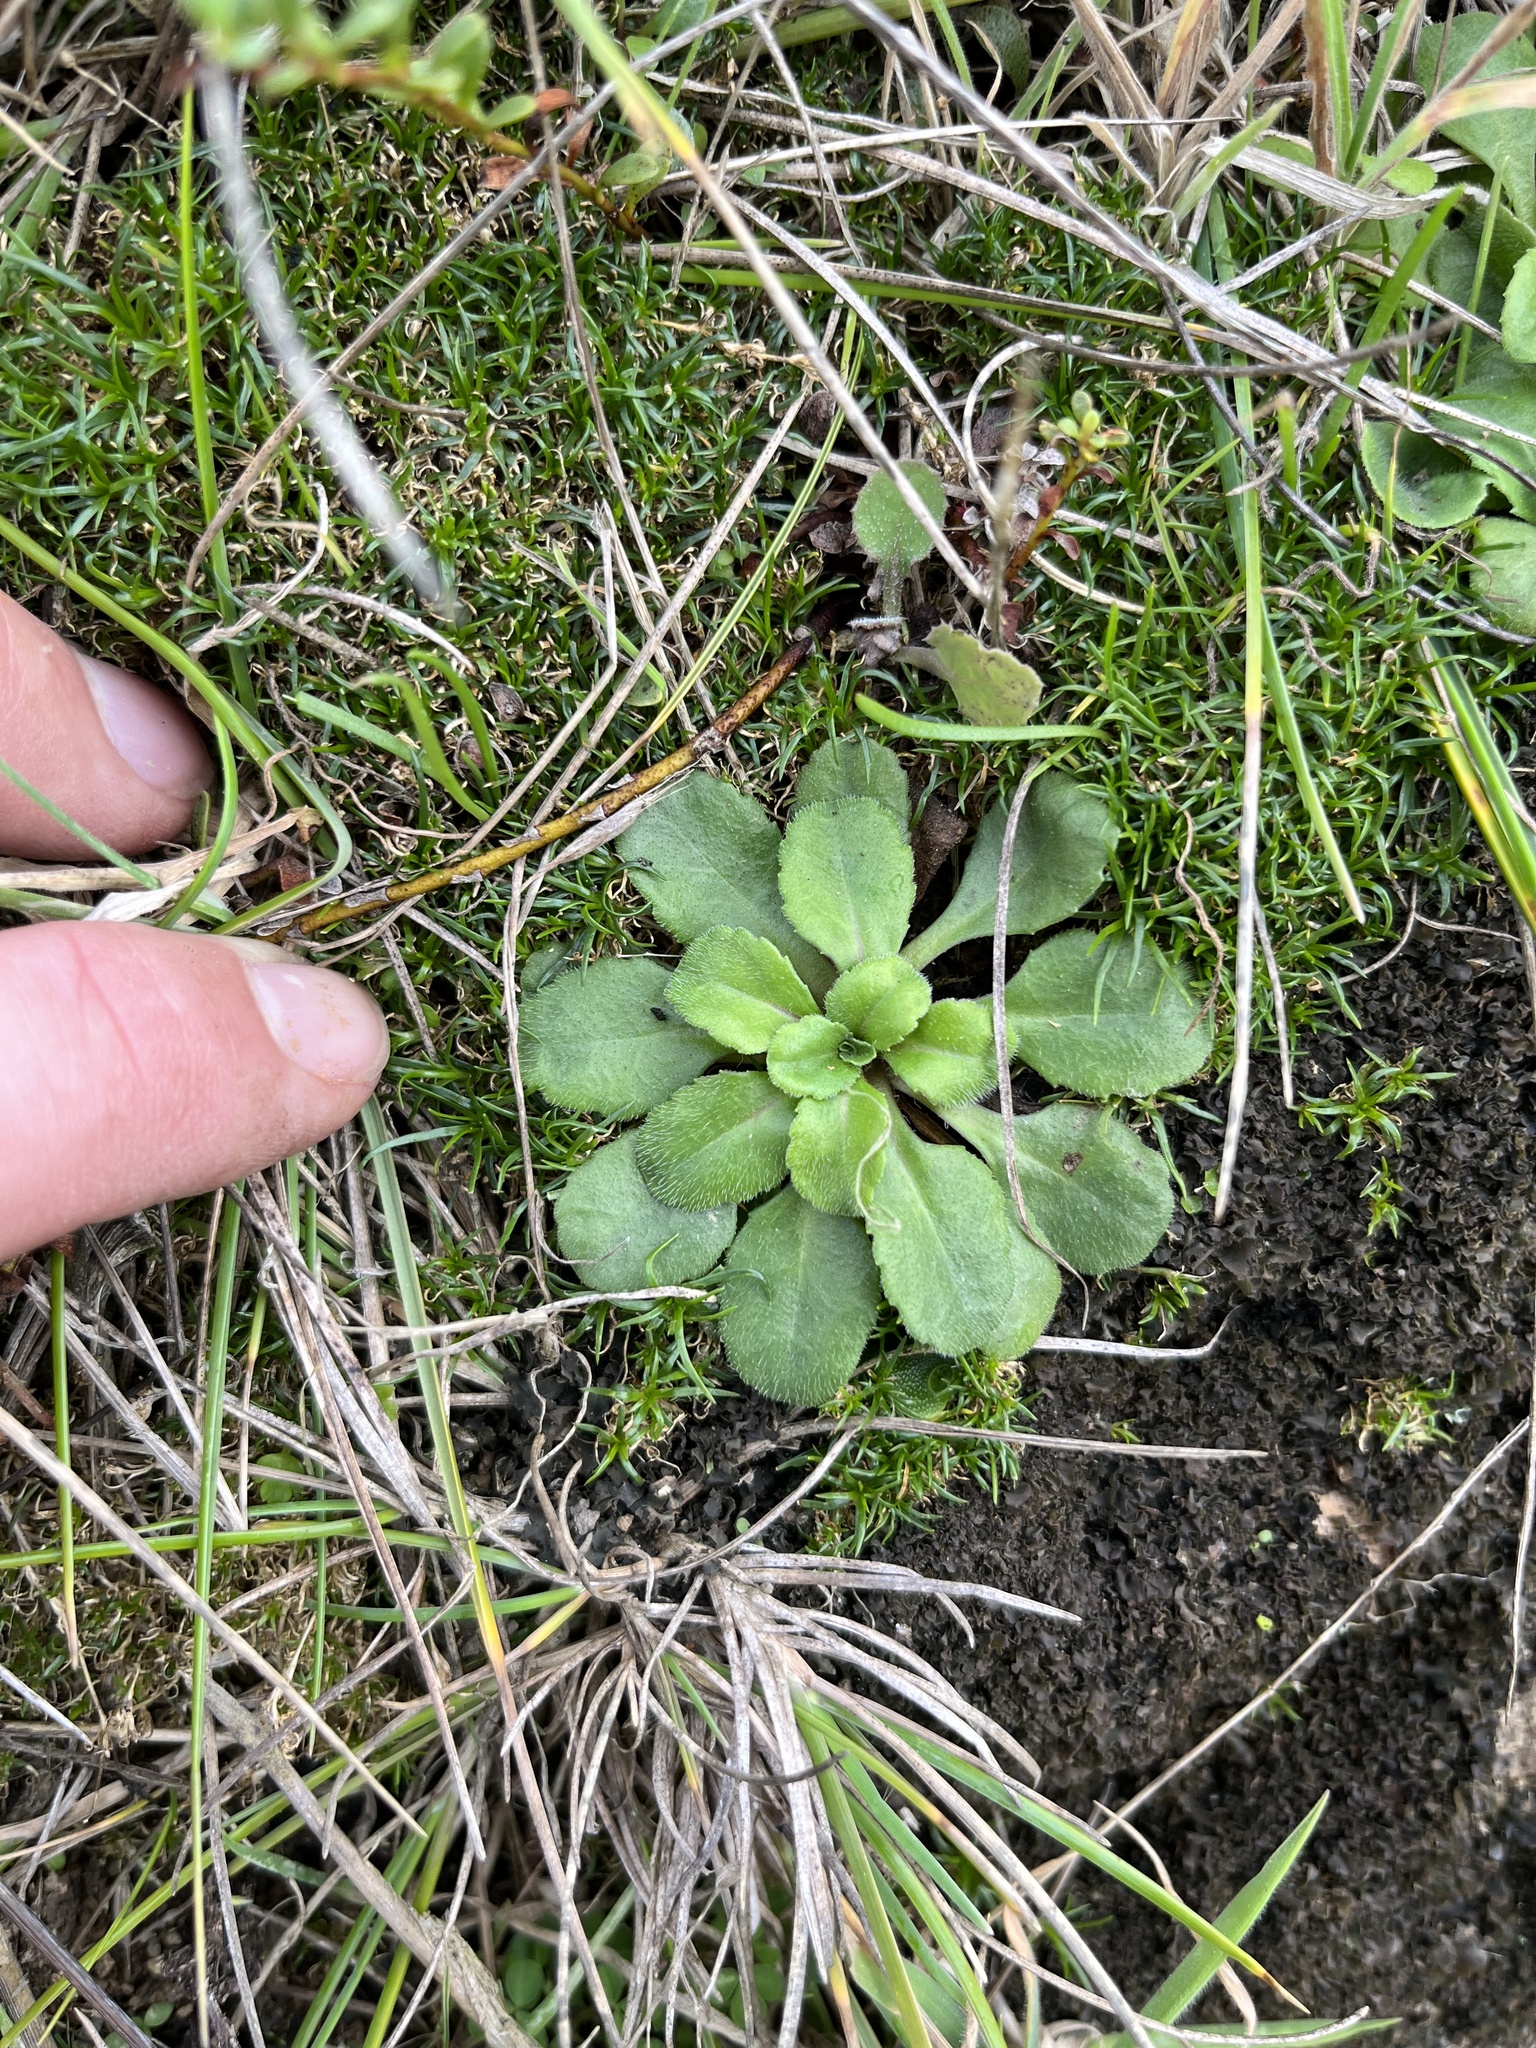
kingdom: Plantae
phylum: Tracheophyta
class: Magnoliopsida
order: Asterales
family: Asteraceae
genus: Bellis
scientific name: Bellis perennis
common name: Lawndaisy
